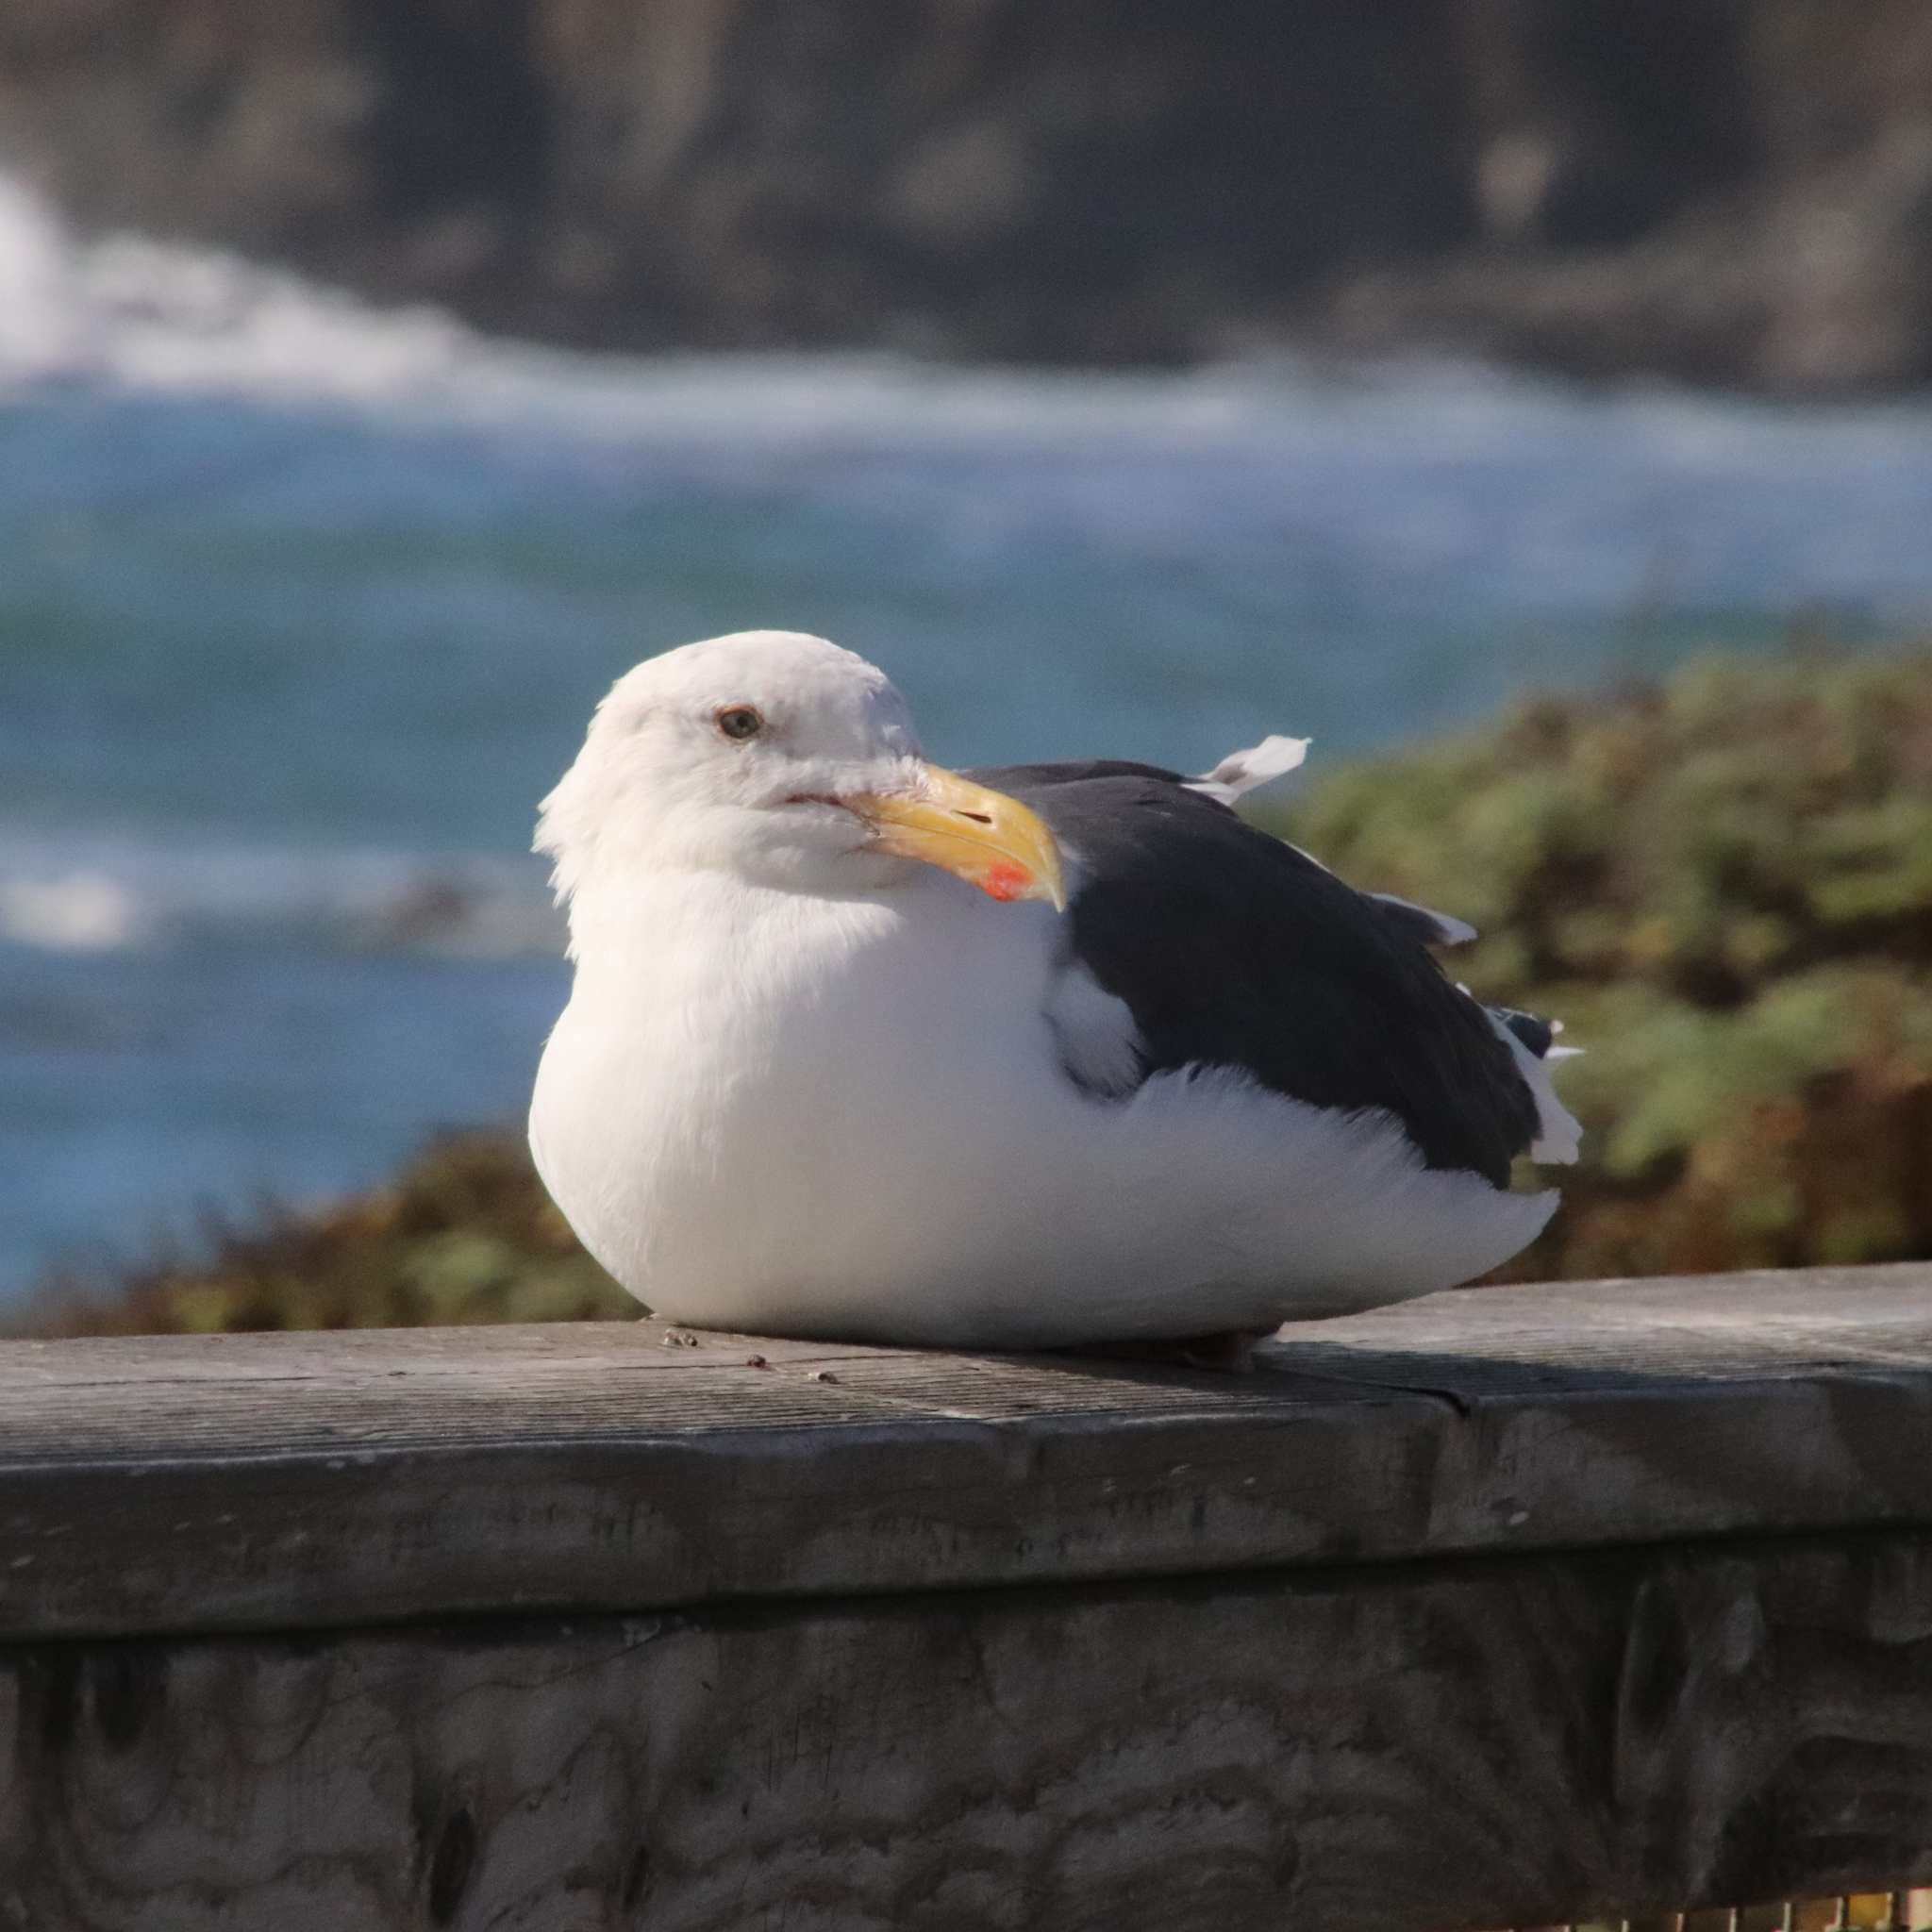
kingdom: Animalia
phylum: Chordata
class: Aves
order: Charadriiformes
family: Laridae
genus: Larus
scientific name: Larus occidentalis
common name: Western gull
